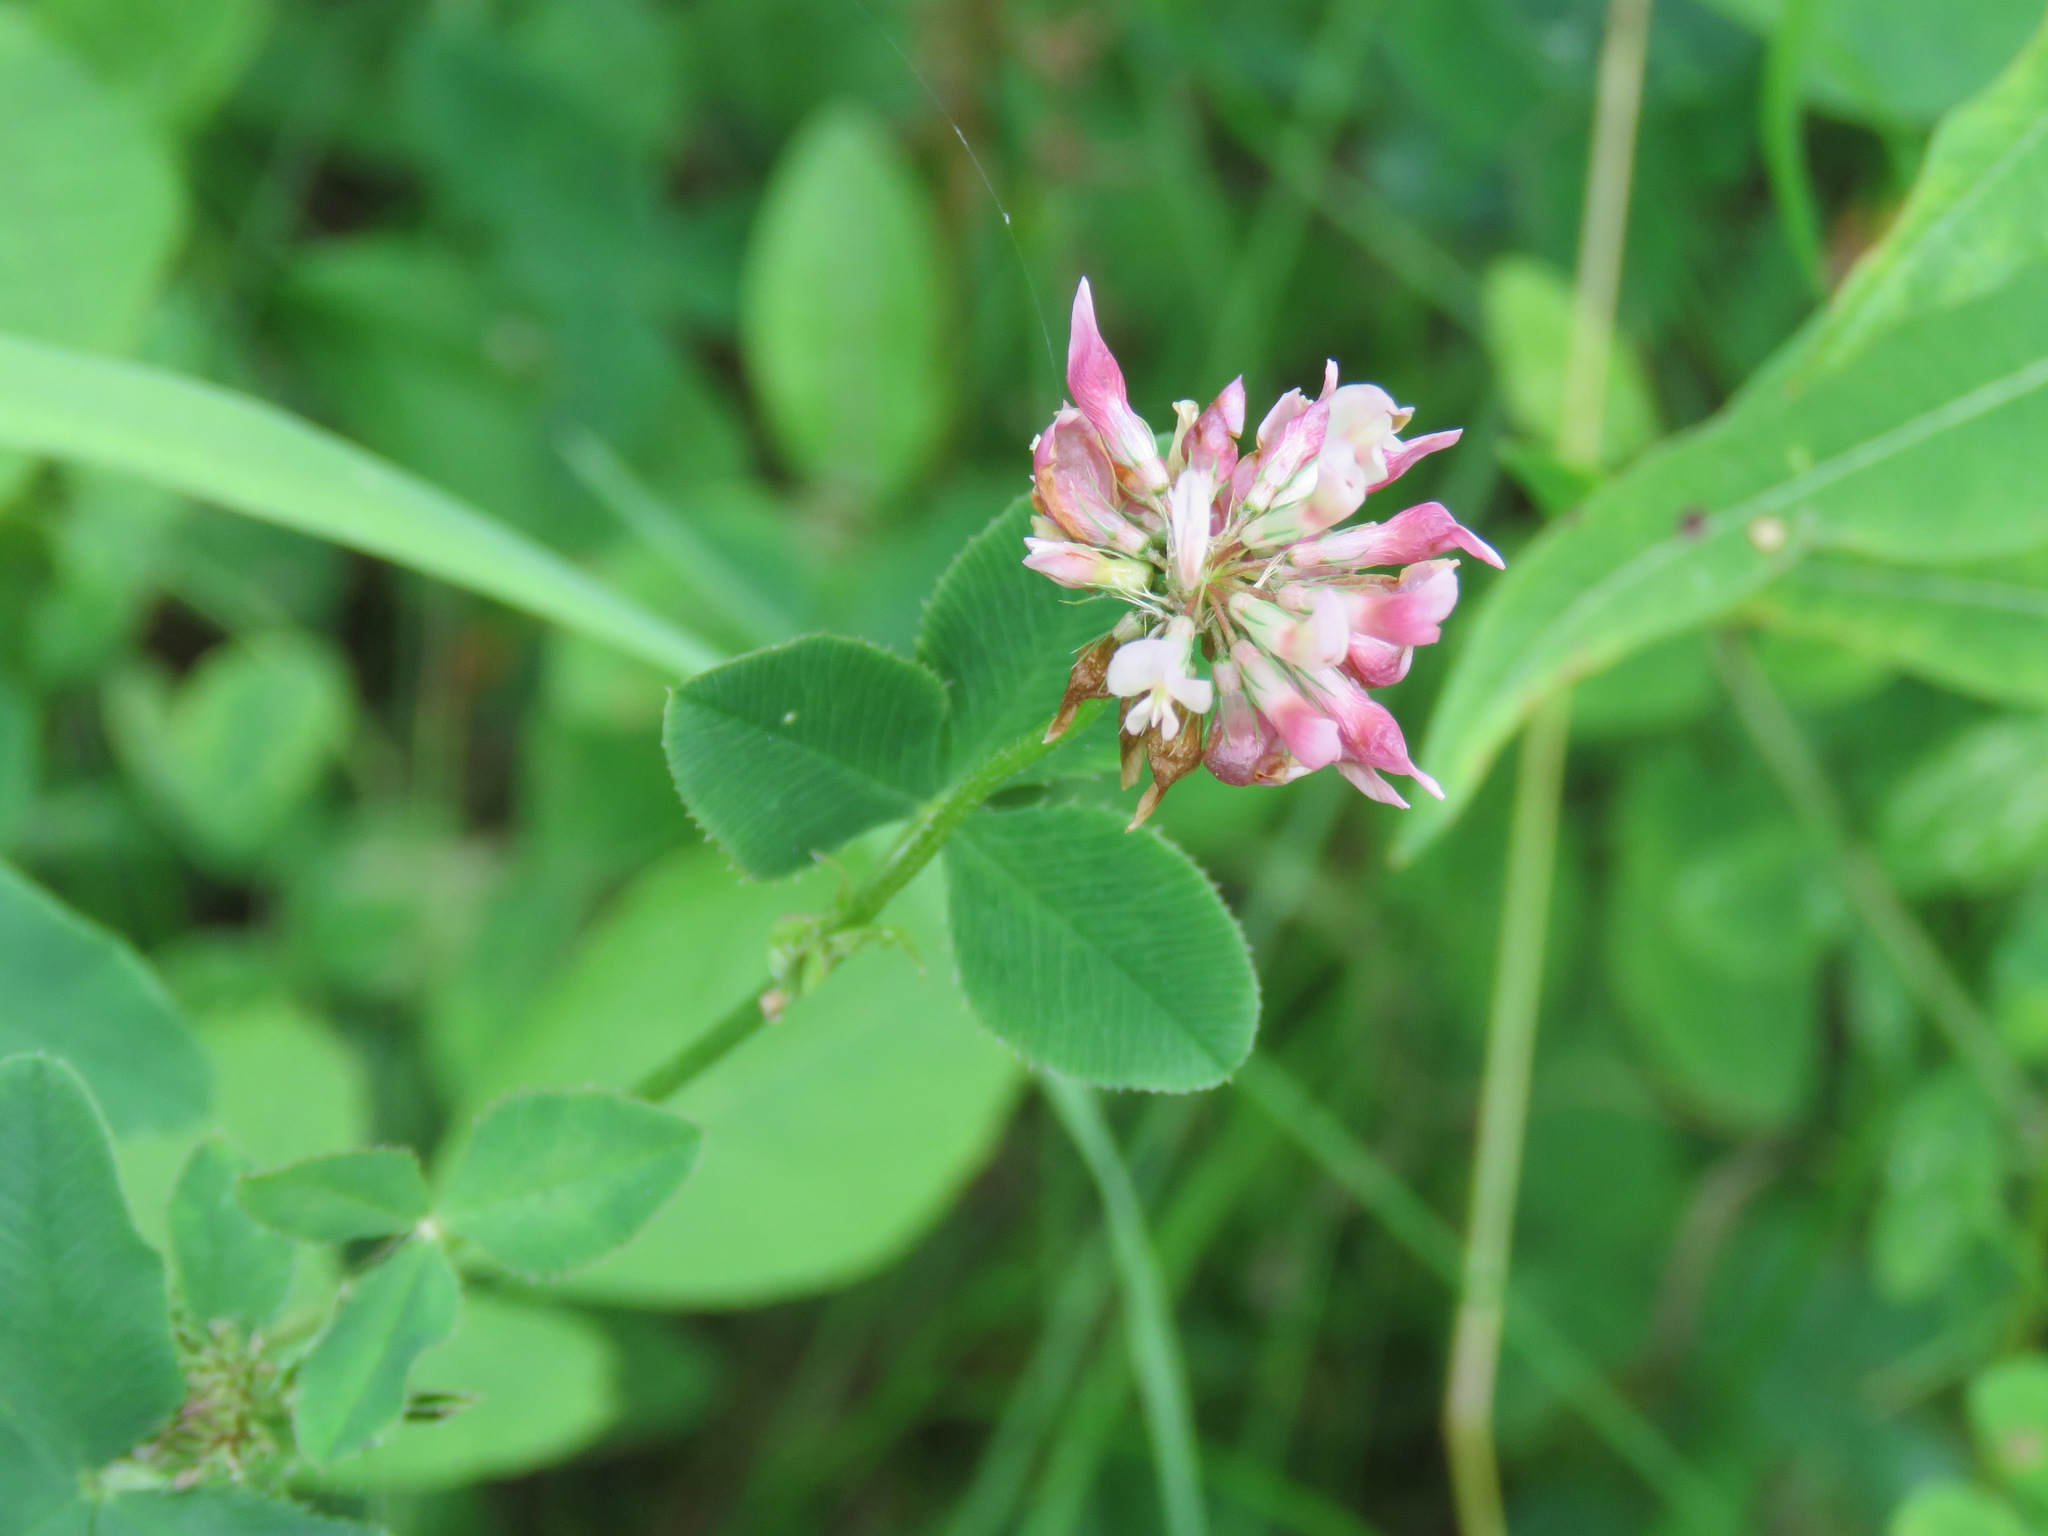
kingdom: Plantae
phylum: Tracheophyta
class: Magnoliopsida
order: Fabales
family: Fabaceae
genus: Trifolium
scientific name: Trifolium hybridum
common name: Alsike clover
